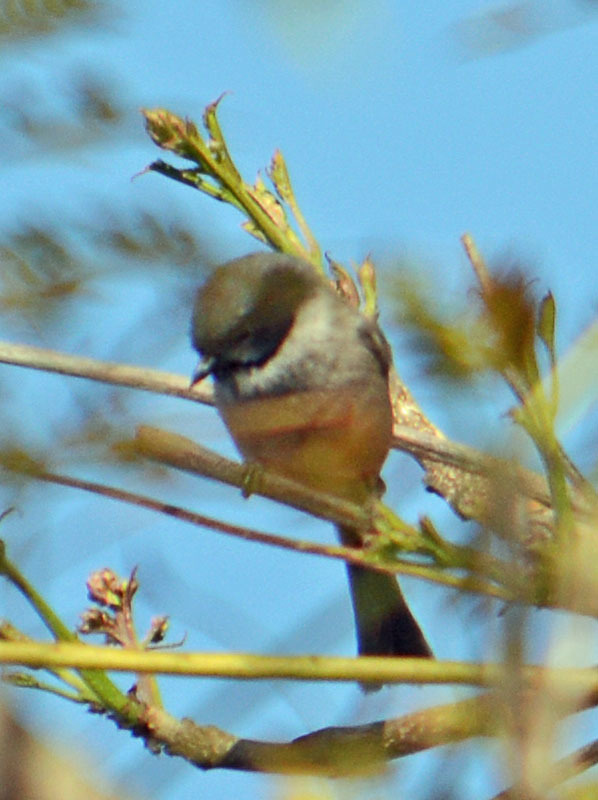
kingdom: Animalia
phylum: Chordata
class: Aves
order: Passeriformes
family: Aegithalidae
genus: Psaltriparus
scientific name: Psaltriparus minimus
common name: American bushtit
